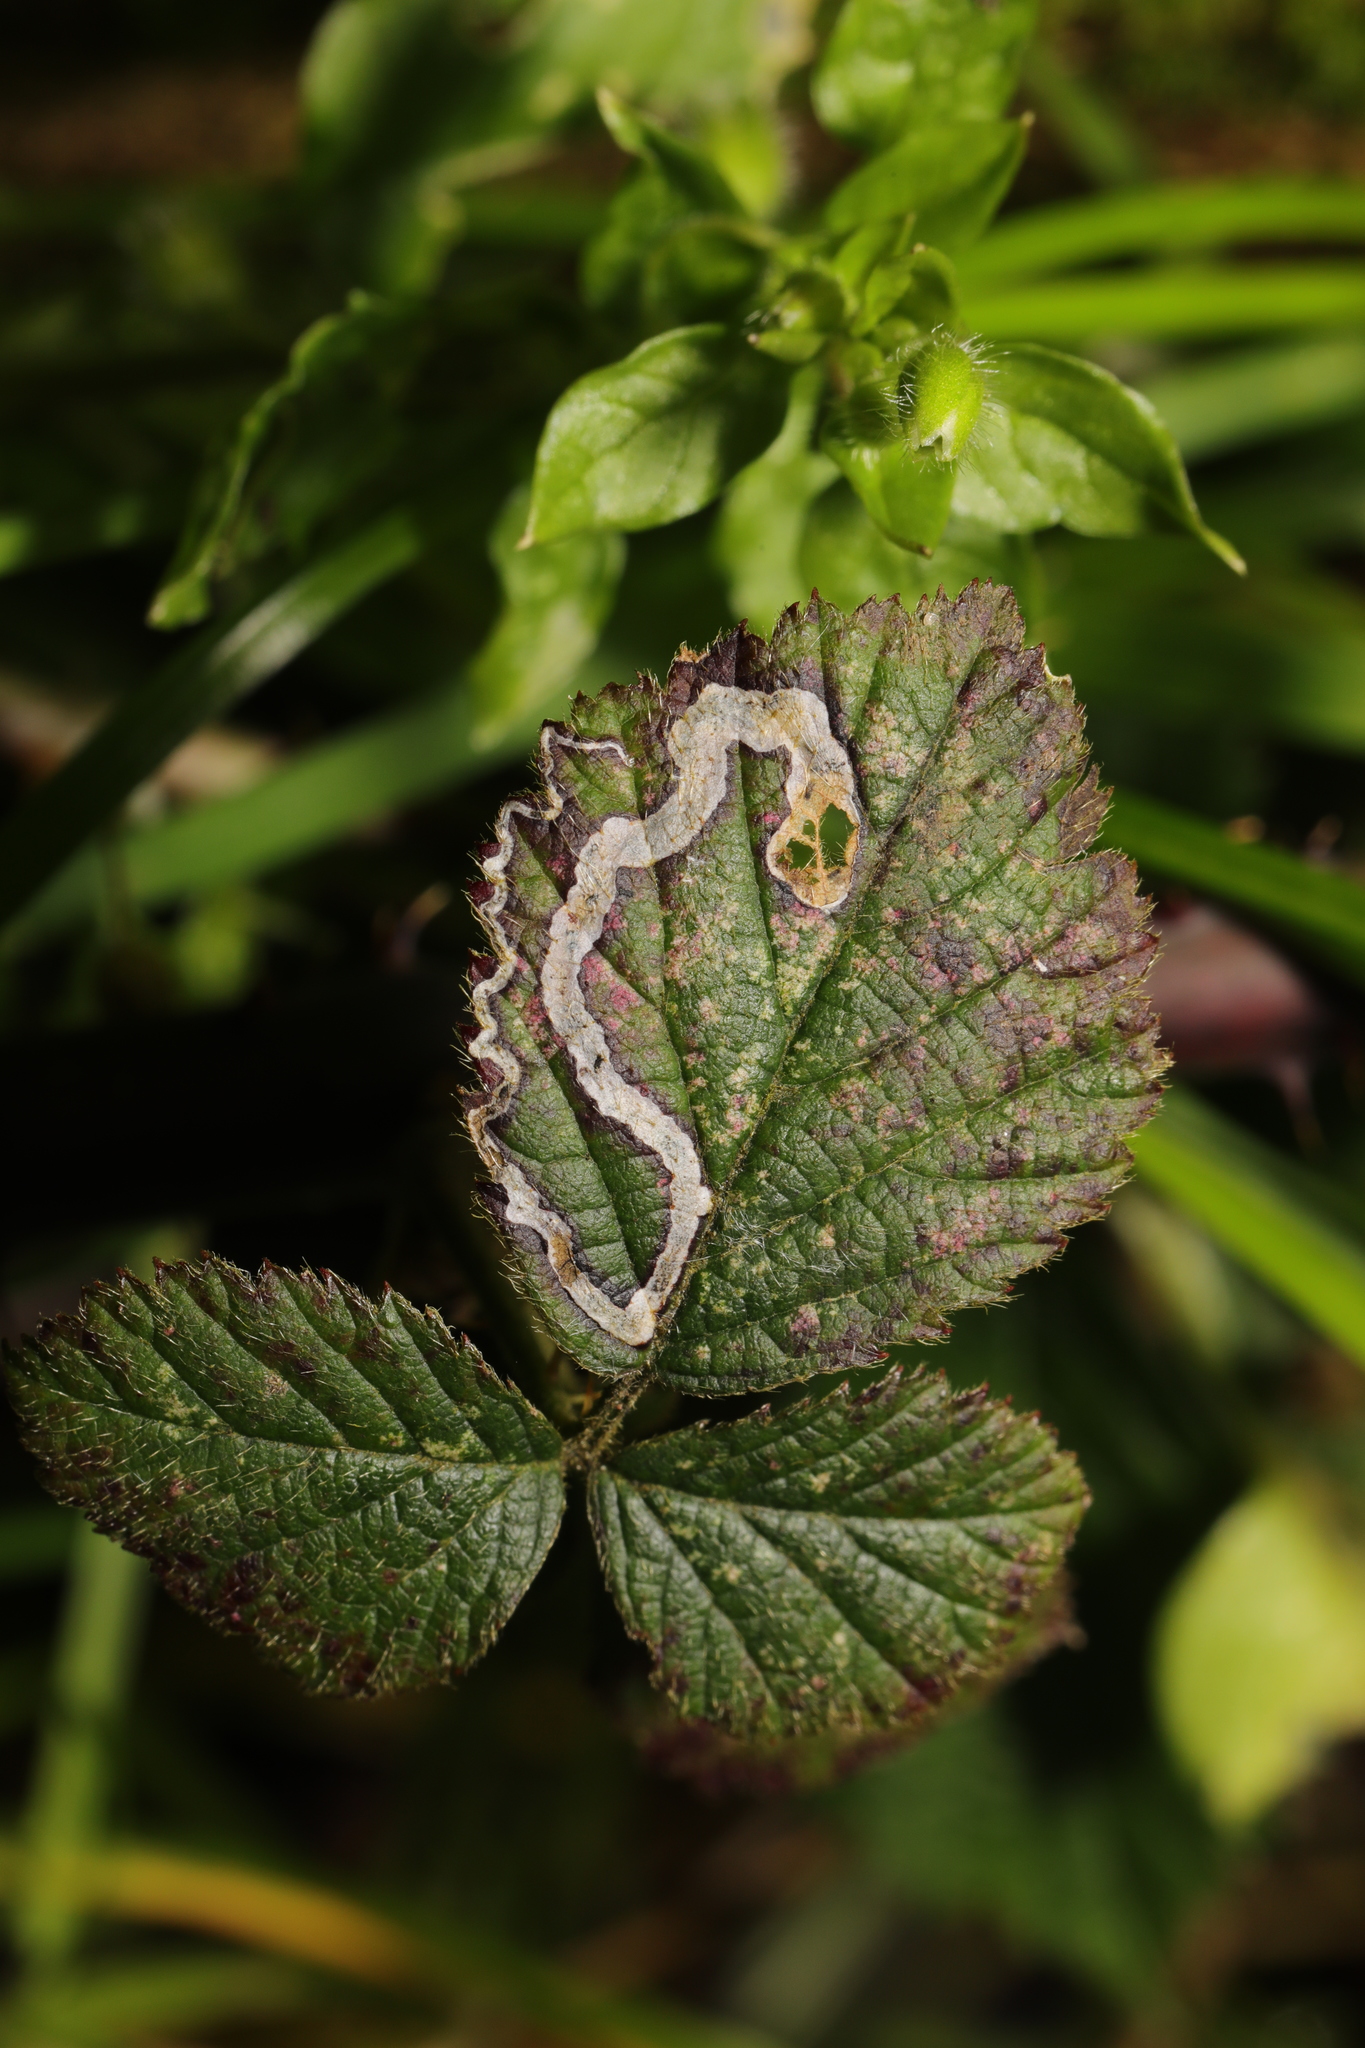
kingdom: Animalia
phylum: Arthropoda
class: Insecta
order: Lepidoptera
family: Nepticulidae
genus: Stigmella
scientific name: Stigmella aurella
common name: Golden pigmy
